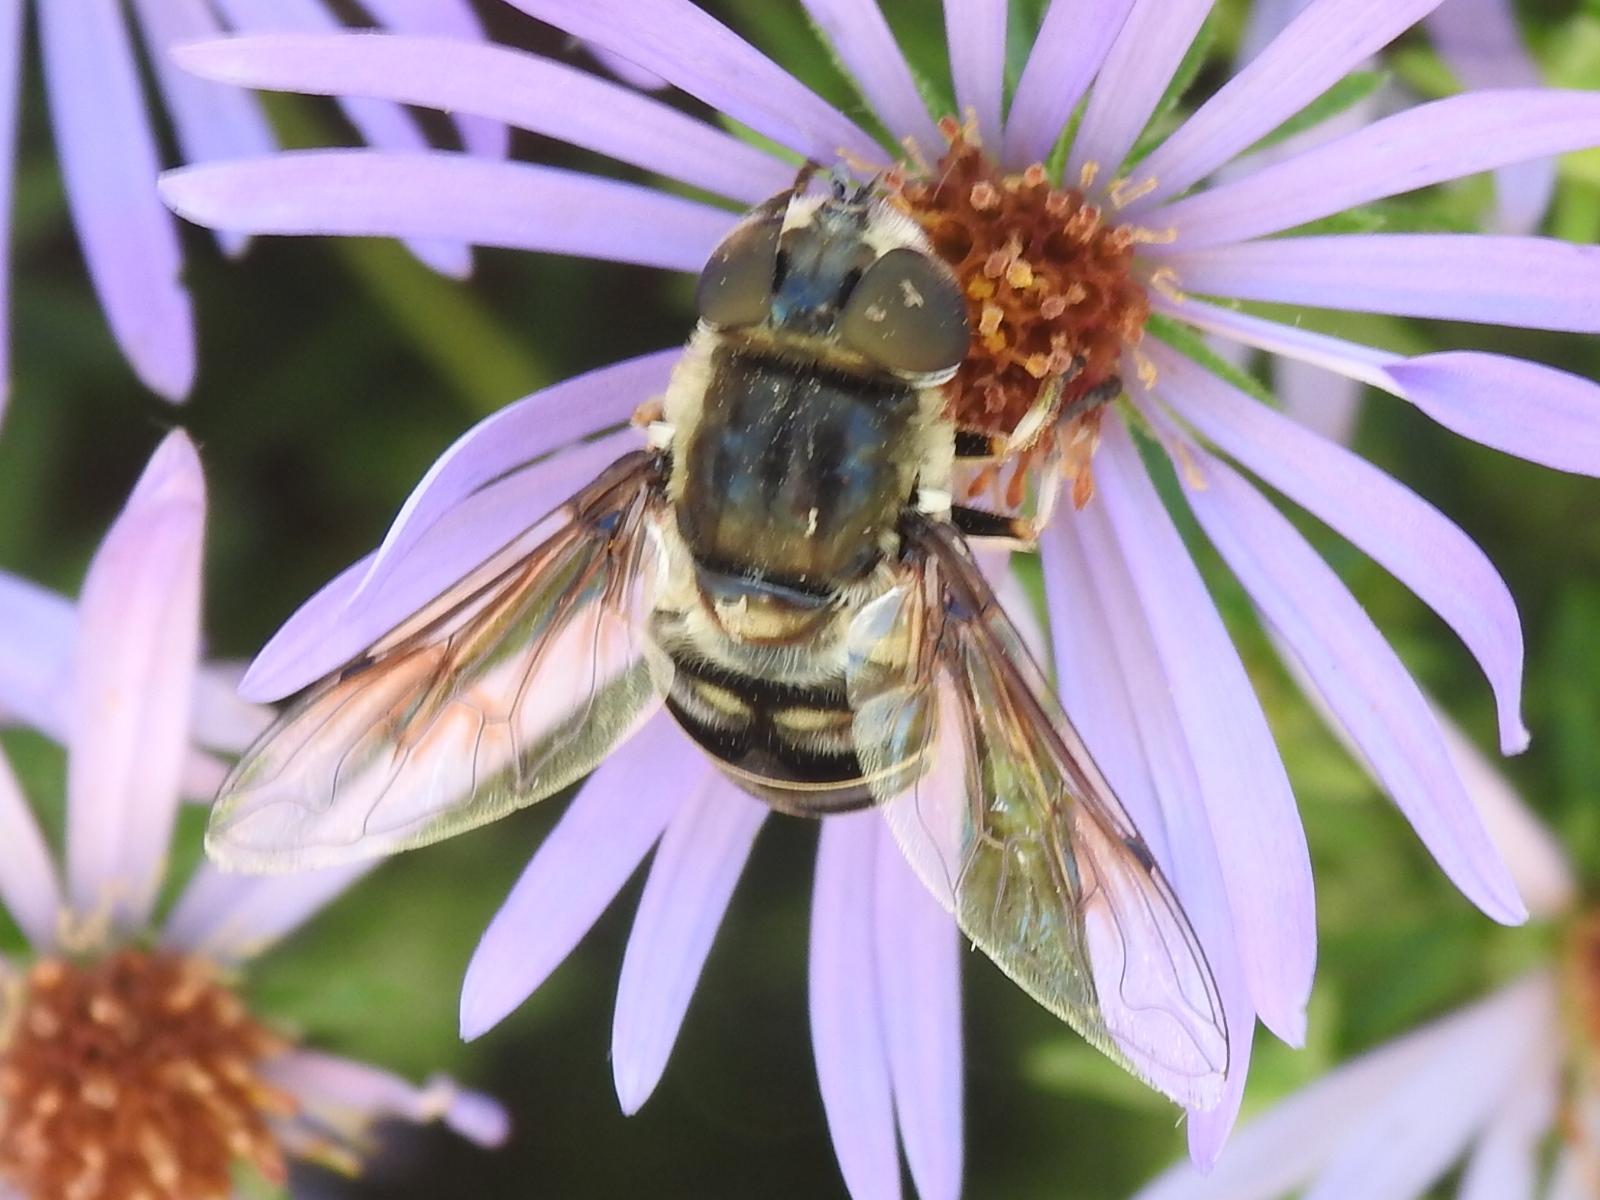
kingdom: Animalia
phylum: Arthropoda
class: Insecta
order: Diptera
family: Syrphidae
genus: Eristalis
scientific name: Eristalis dimidiata
